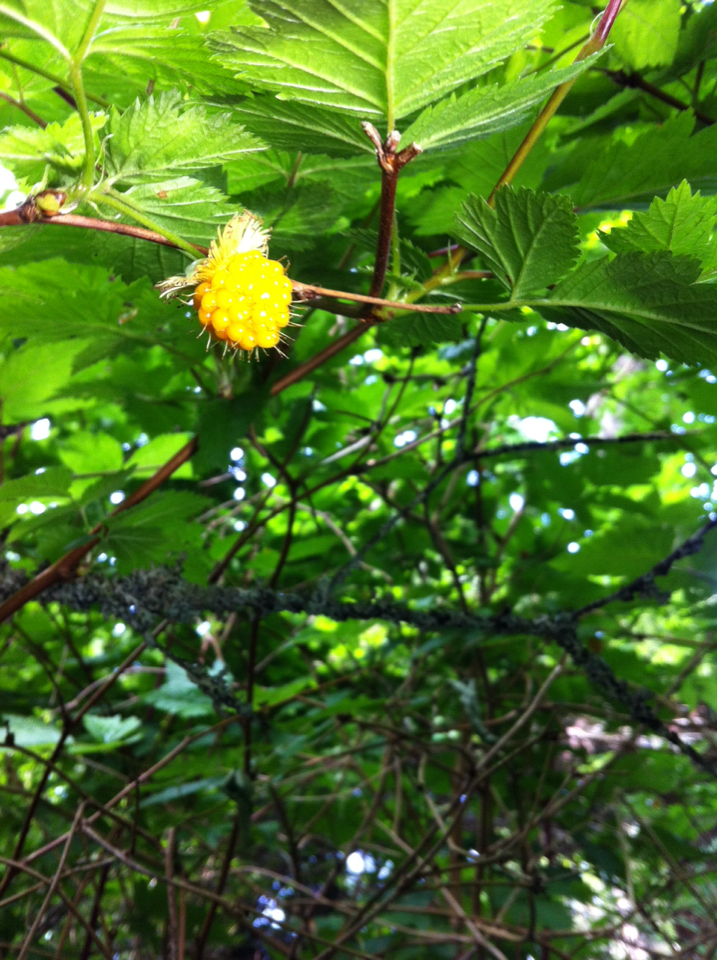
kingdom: Plantae
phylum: Tracheophyta
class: Magnoliopsida
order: Rosales
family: Rosaceae
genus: Rubus
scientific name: Rubus spectabilis
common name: Salmonberry
